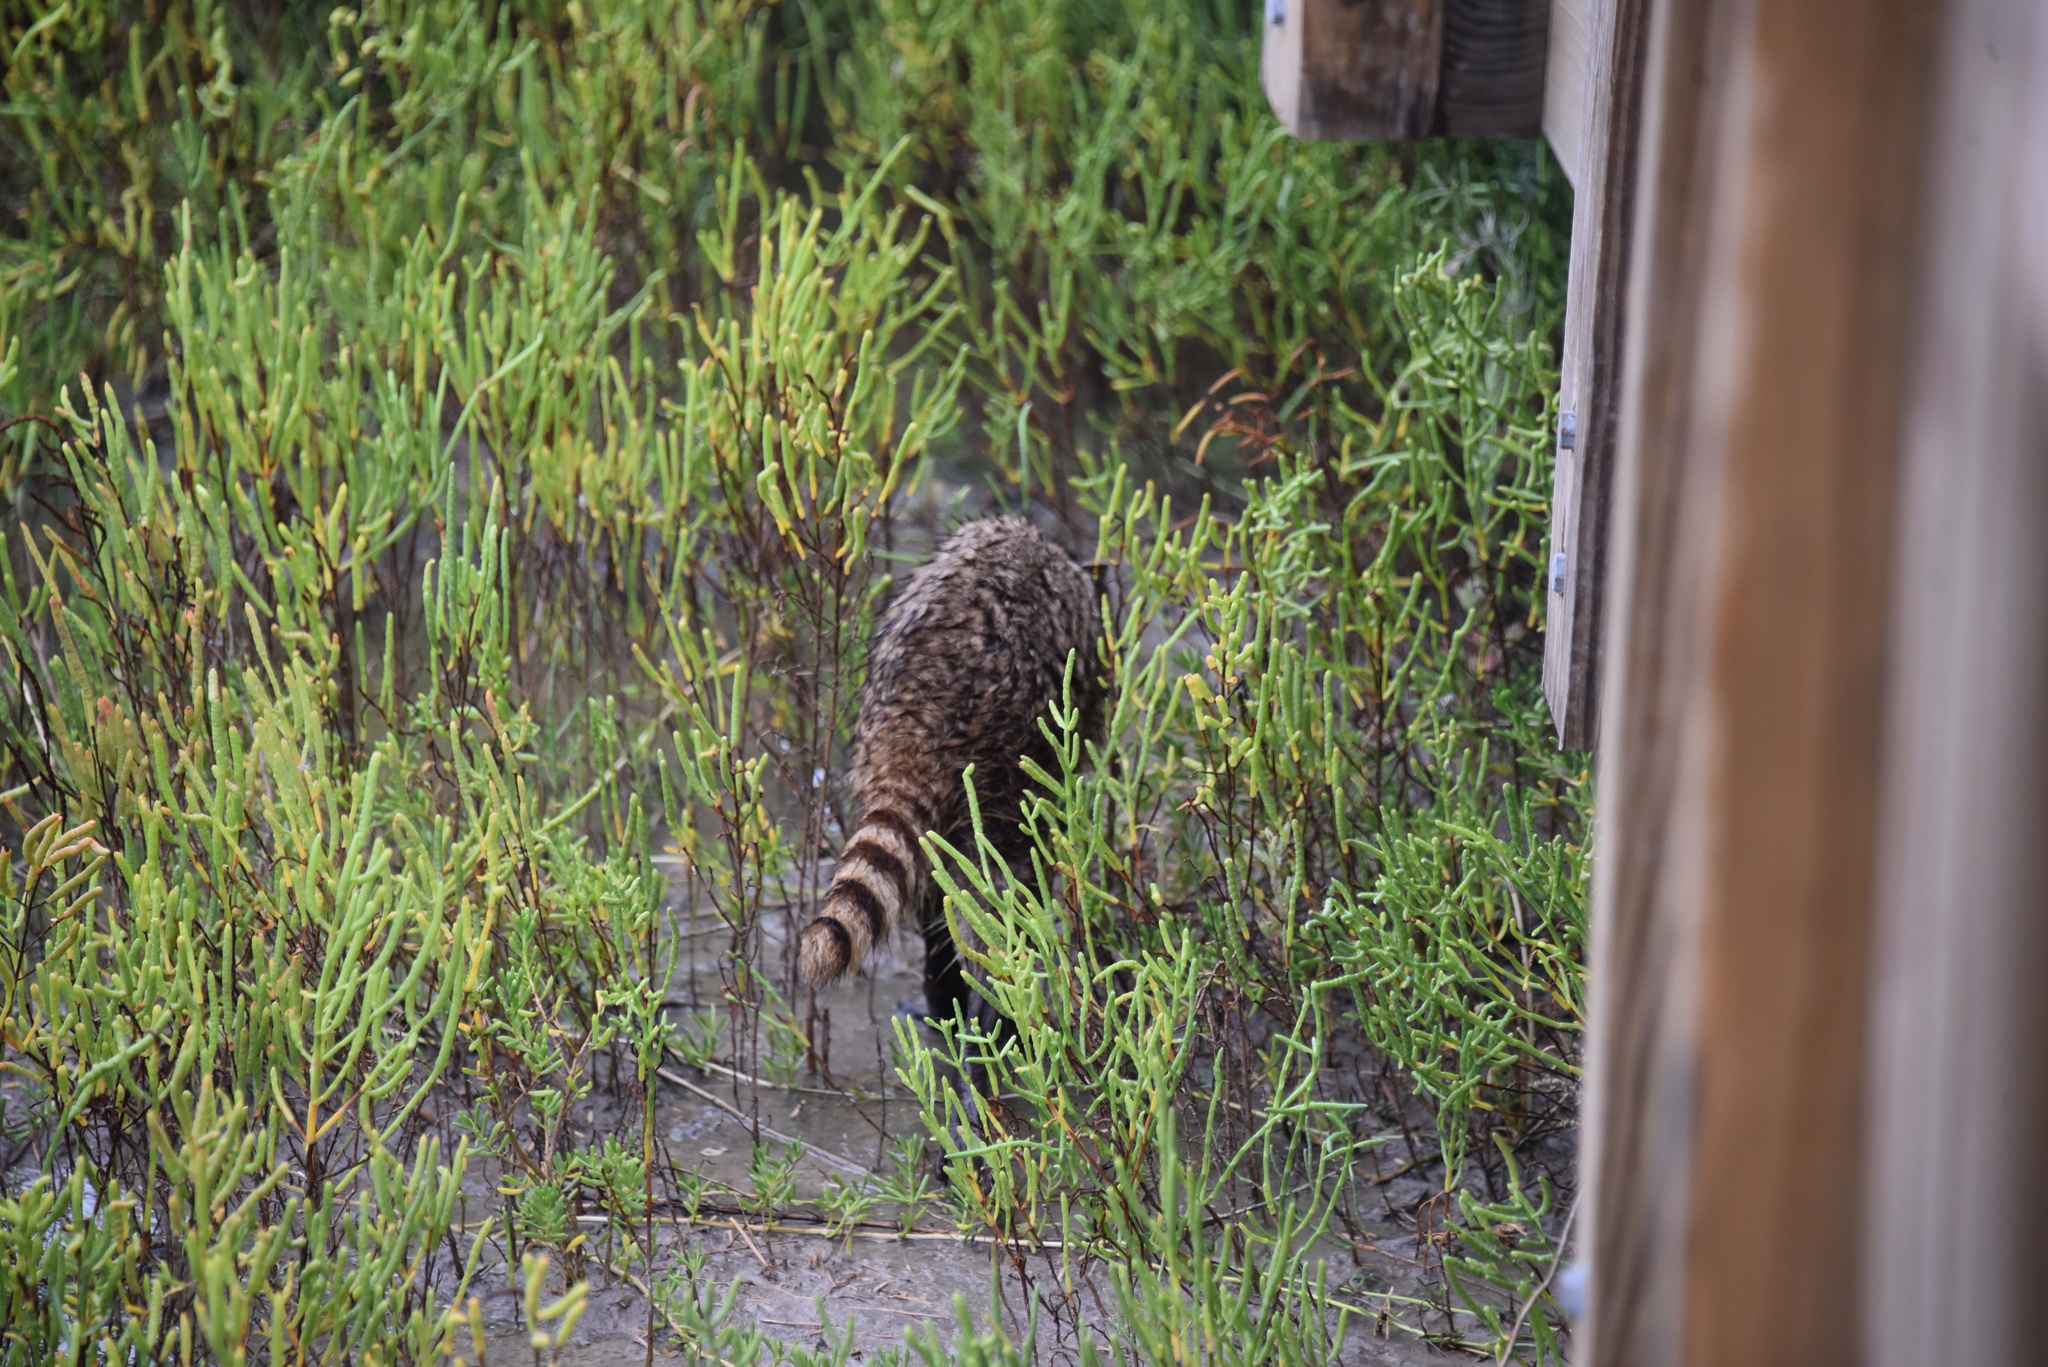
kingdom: Animalia
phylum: Chordata
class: Mammalia
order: Carnivora
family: Procyonidae
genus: Procyon
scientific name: Procyon lotor
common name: Raccoon
